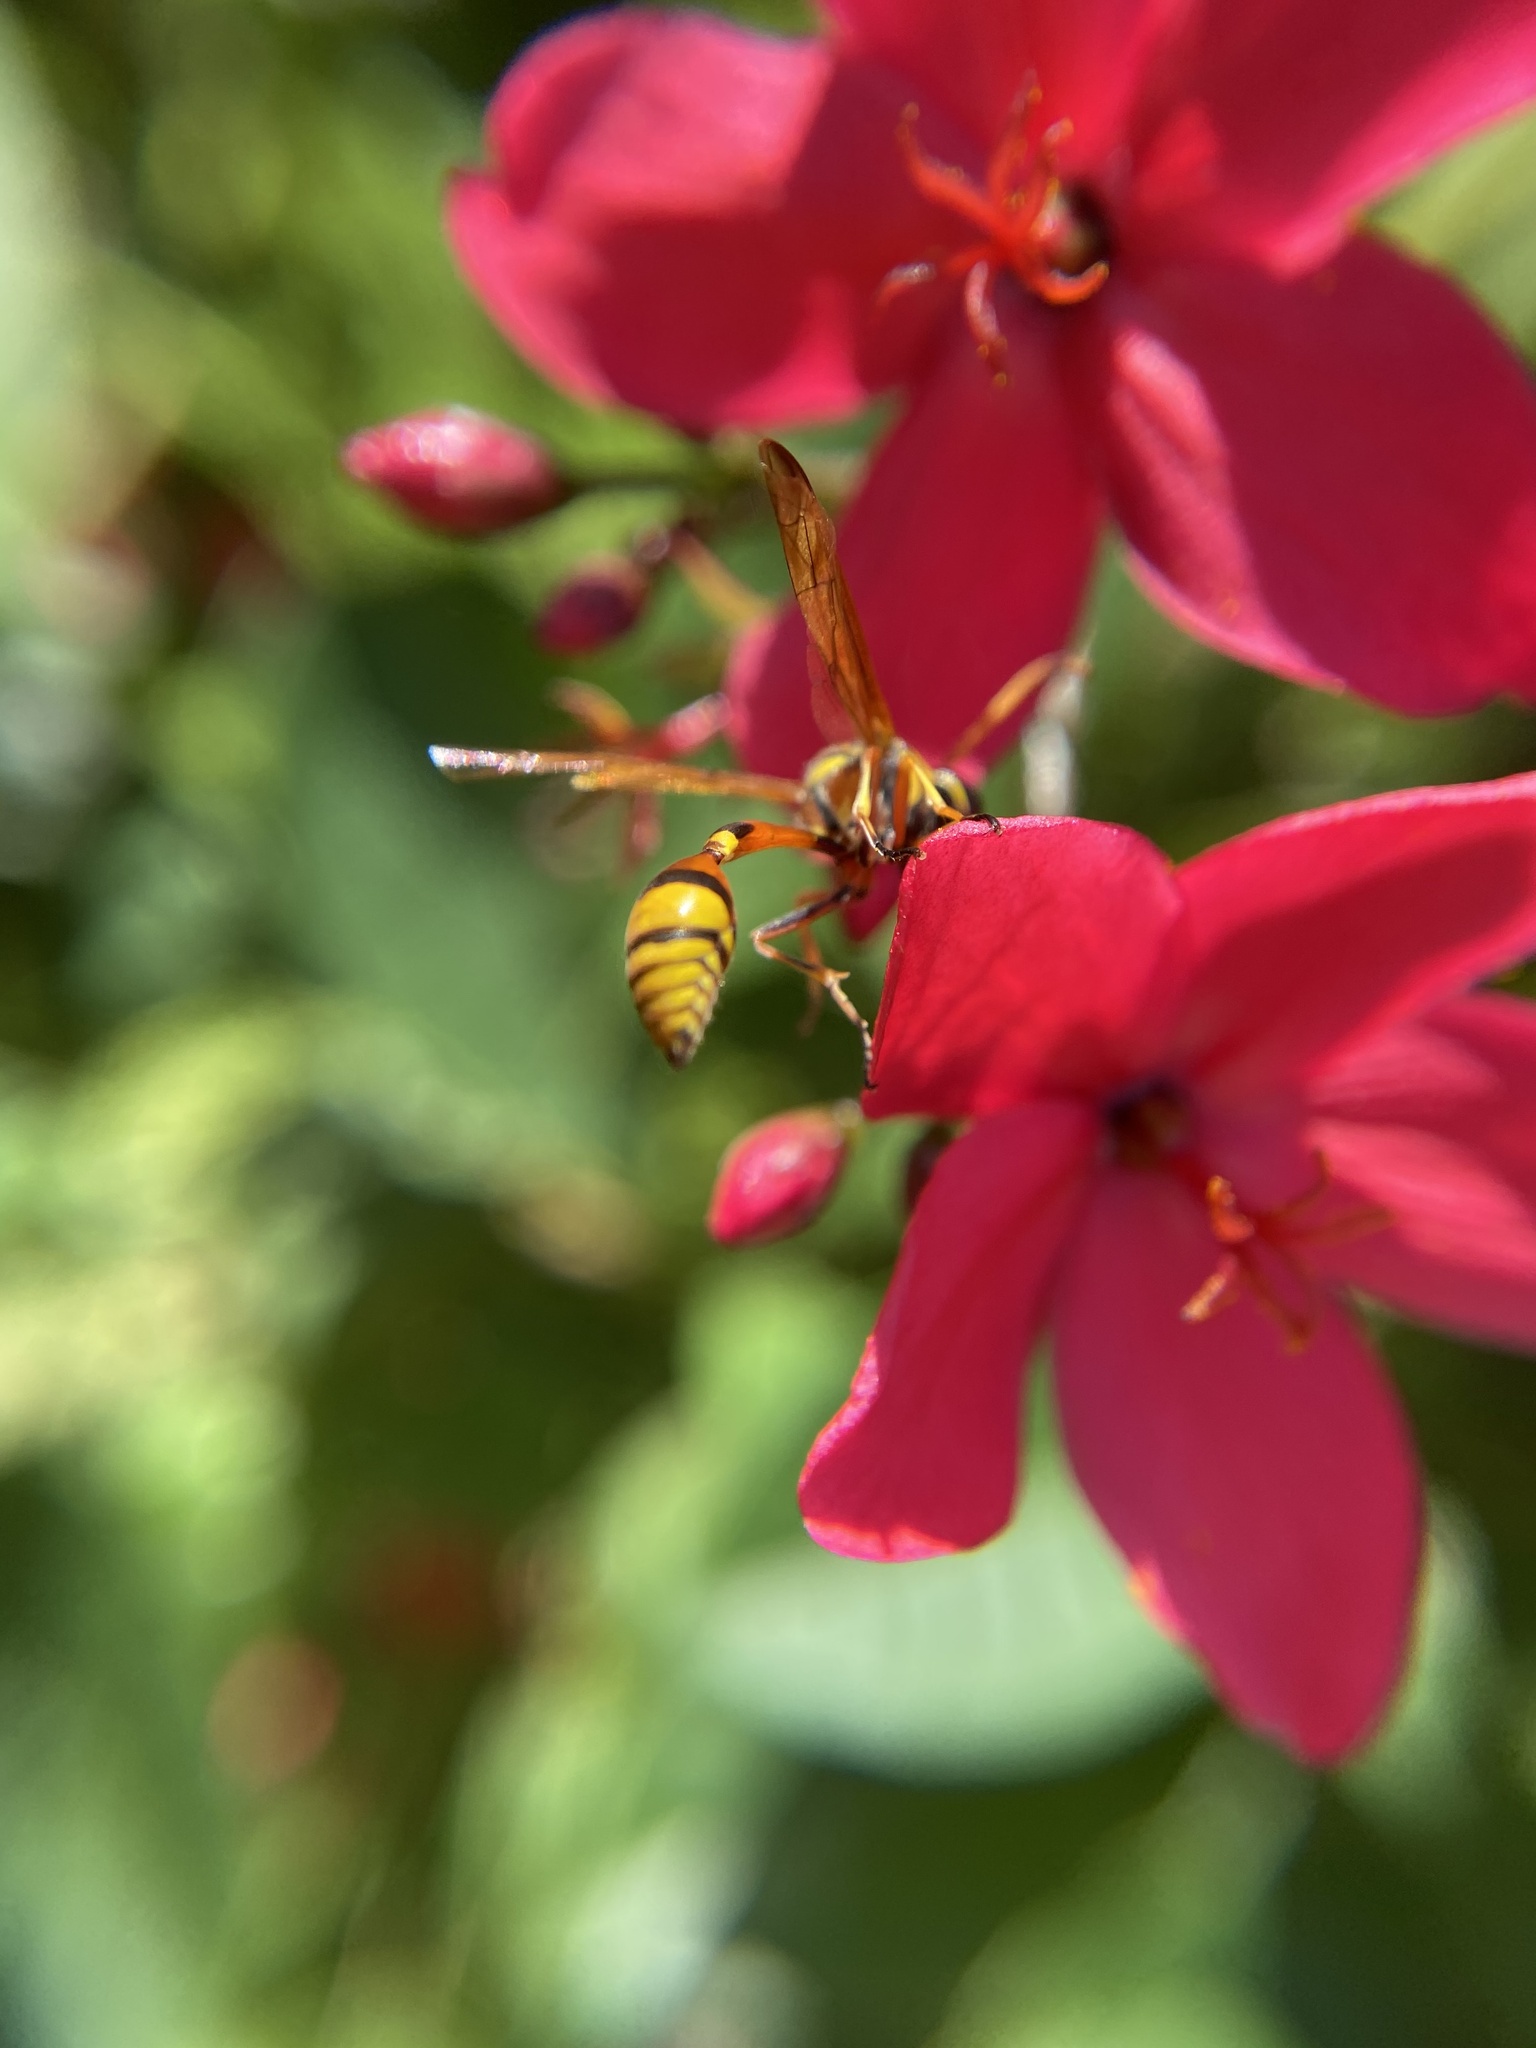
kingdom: Animalia
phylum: Arthropoda
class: Insecta
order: Hymenoptera
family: Eumenidae
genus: Delta
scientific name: Delta esuriens
